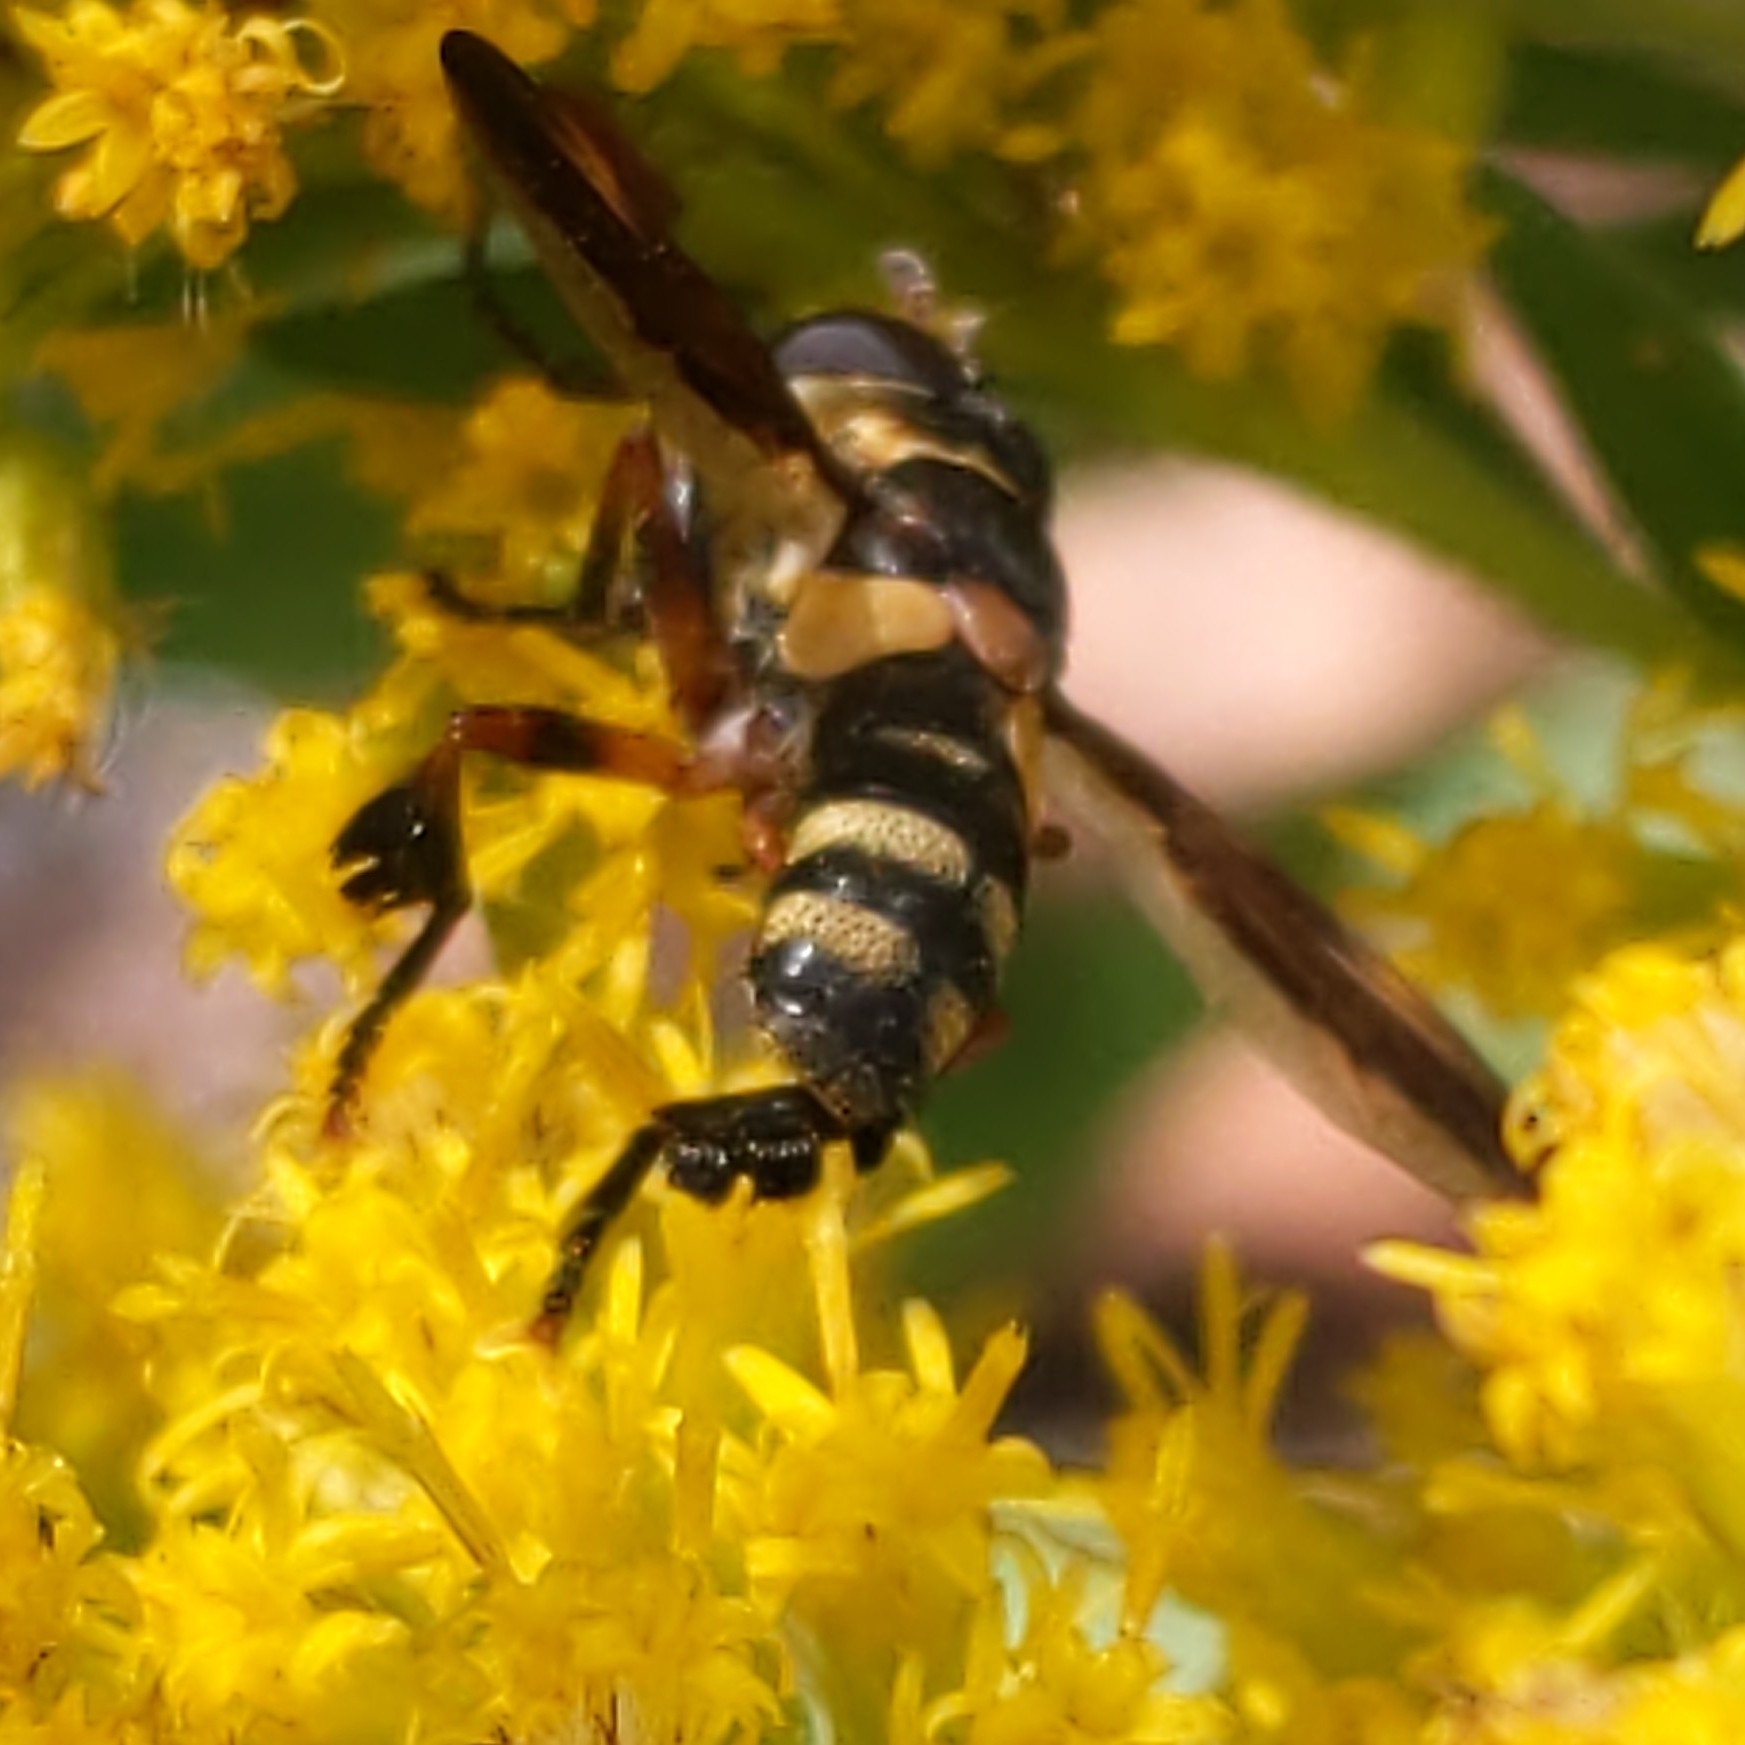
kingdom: Animalia
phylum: Arthropoda
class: Insecta
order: Diptera
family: Tachinidae
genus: Trichopoda
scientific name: Trichopoda plumipes
